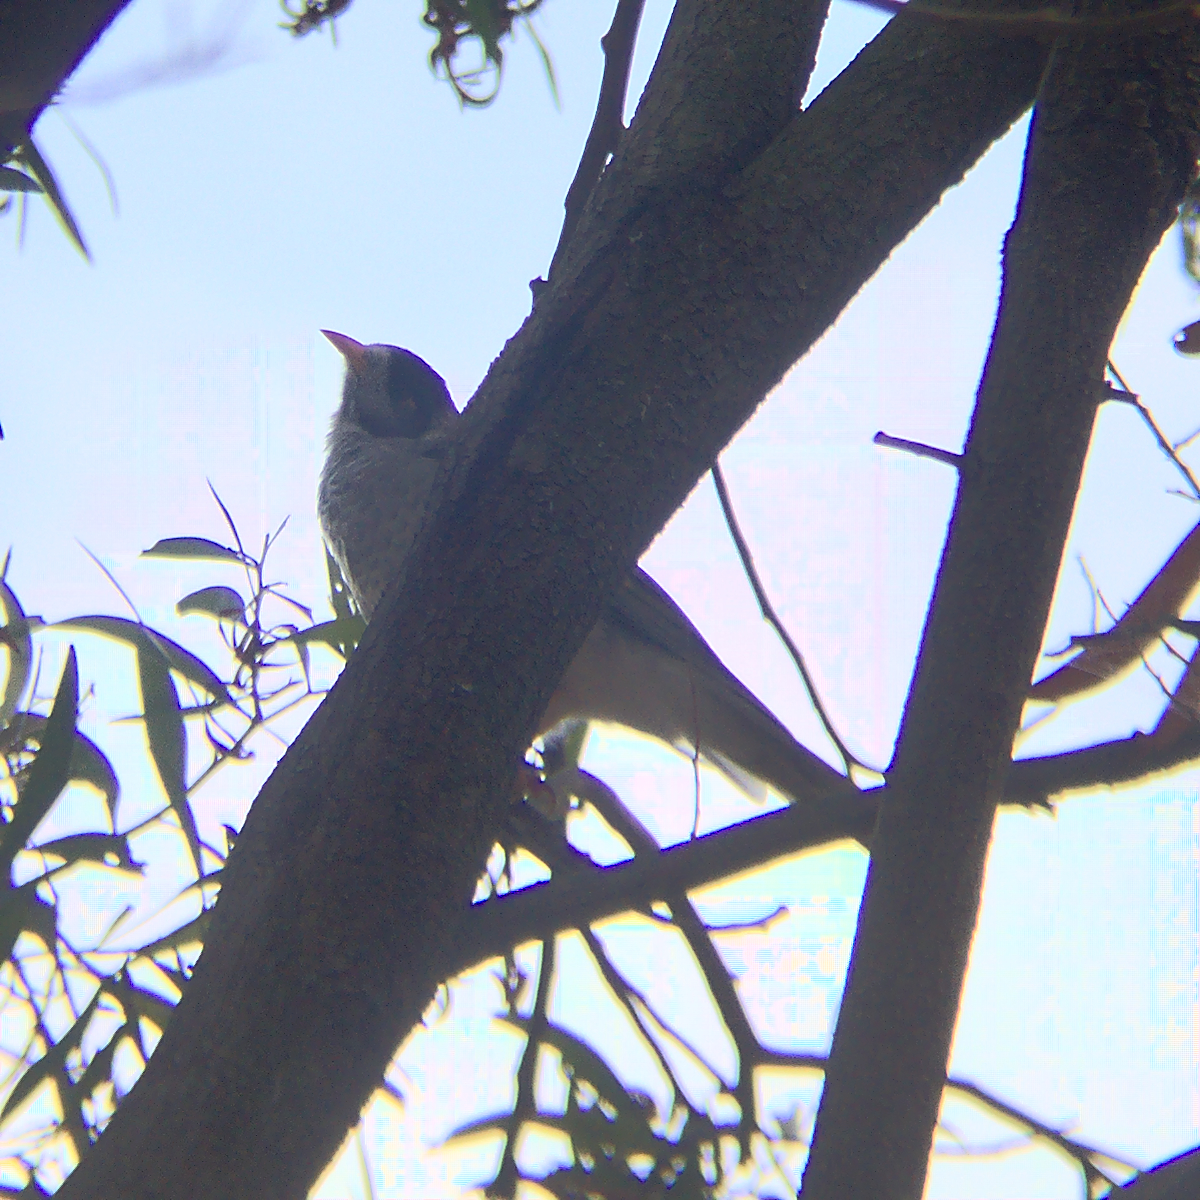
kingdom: Animalia
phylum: Chordata
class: Aves
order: Passeriformes
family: Meliphagidae
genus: Manorina
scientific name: Manorina melanocephala
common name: Noisy miner
